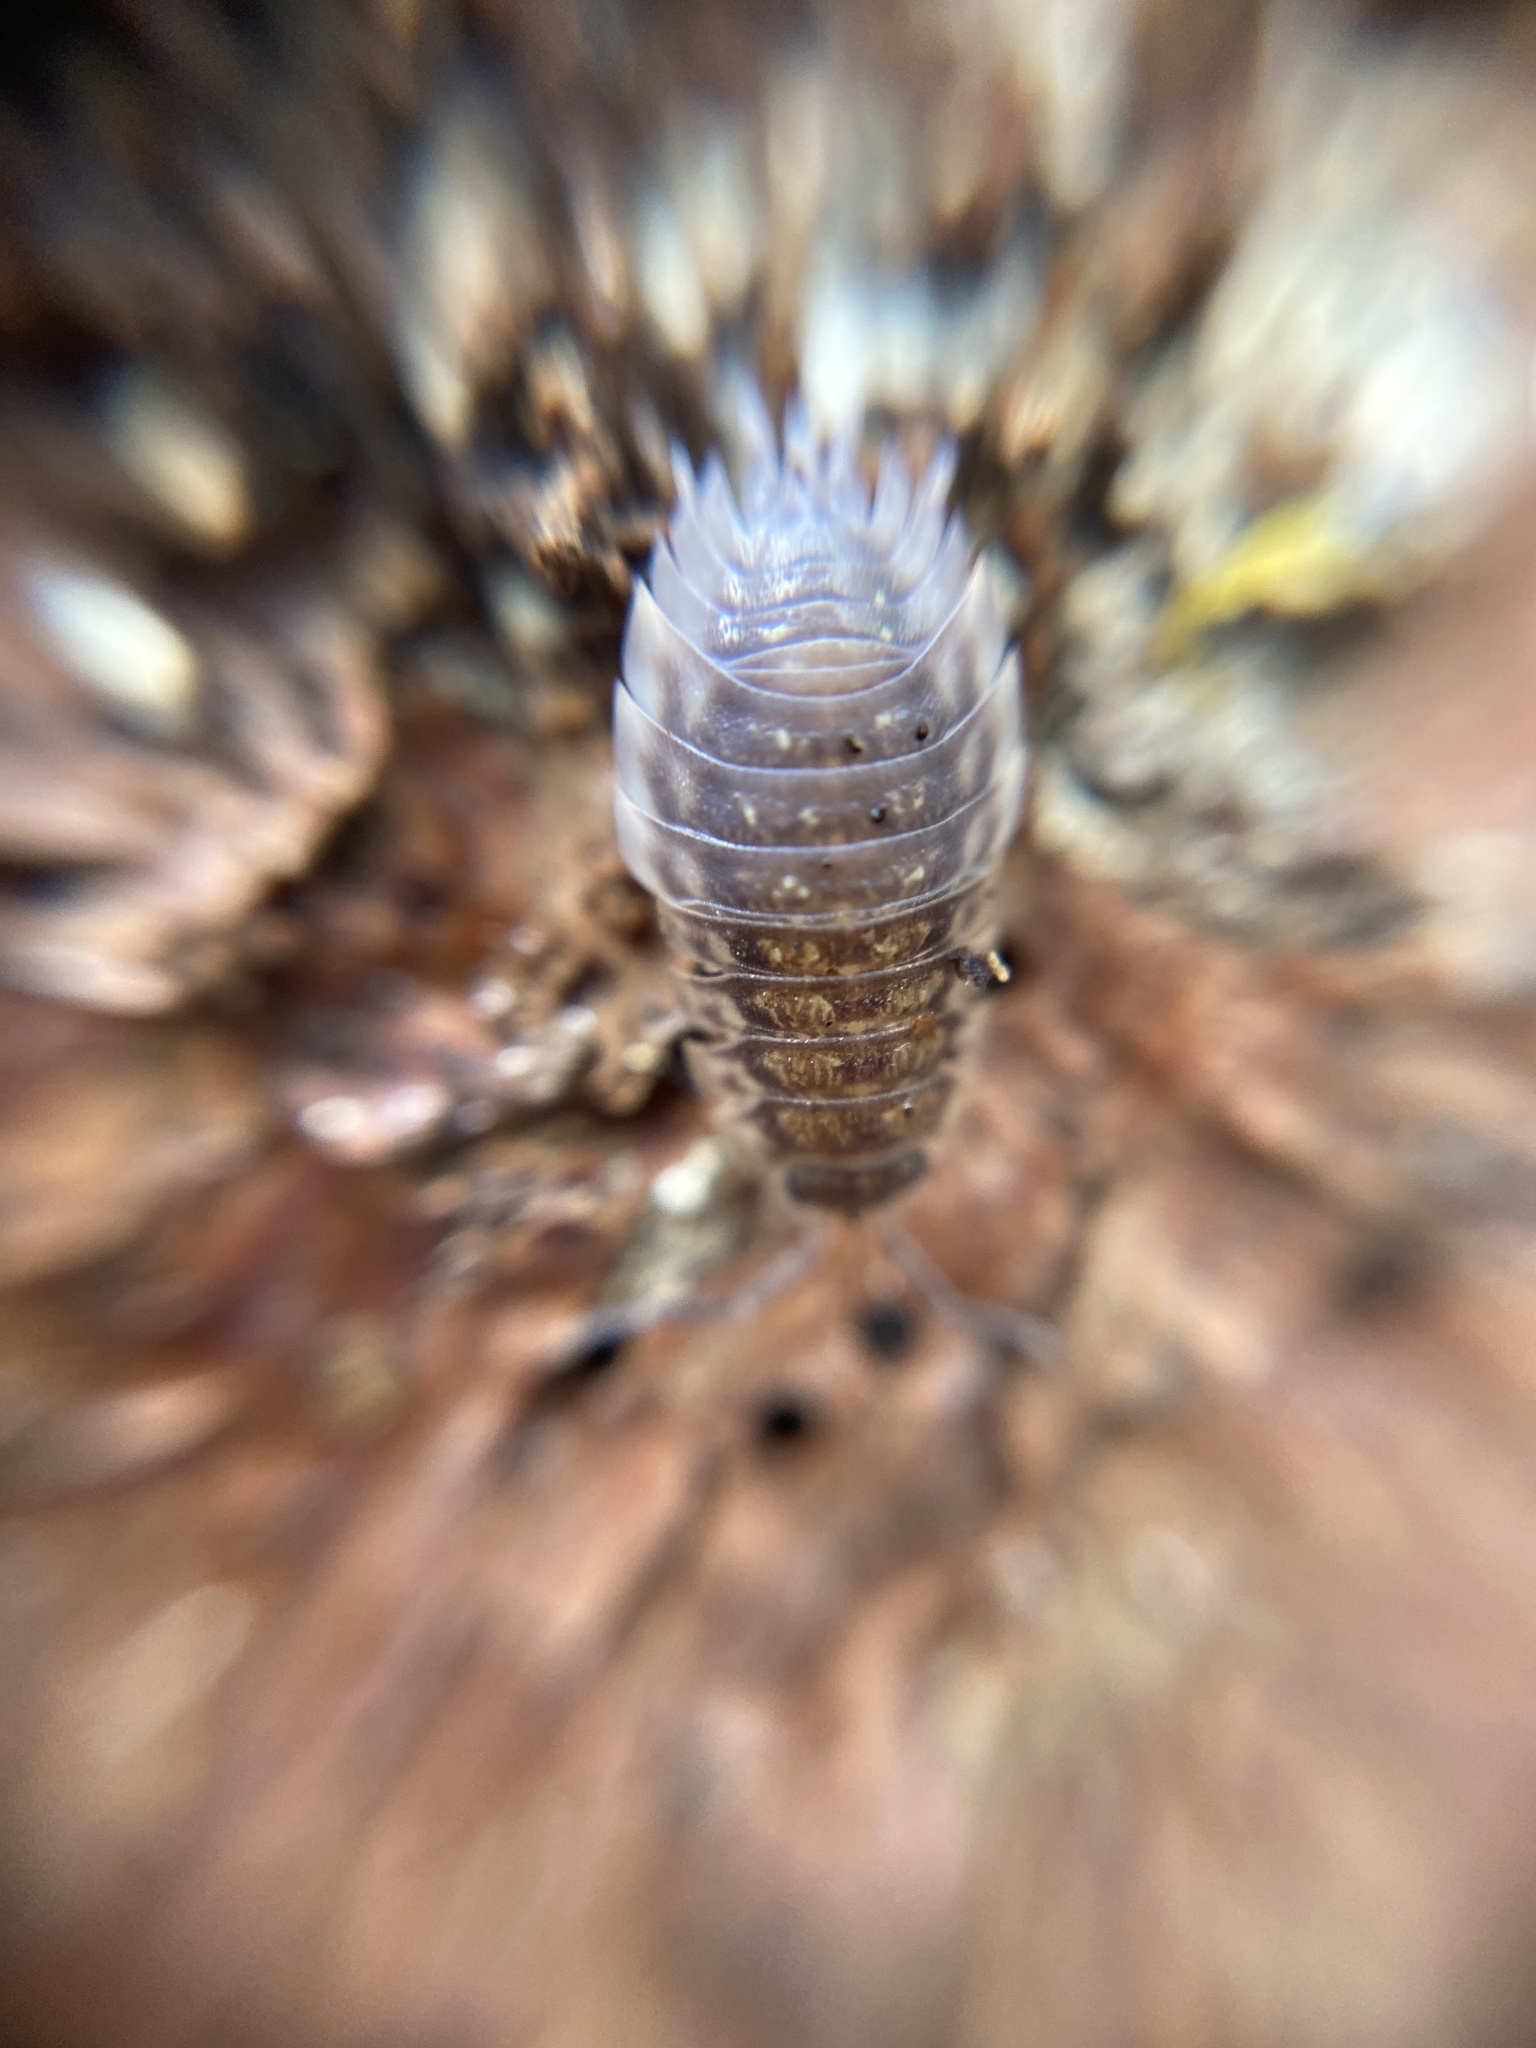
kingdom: Animalia
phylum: Arthropoda
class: Malacostraca
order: Isopoda
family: Oniscidae
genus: Oniscus
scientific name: Oniscus asellus
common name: Common shiny woodlouse
